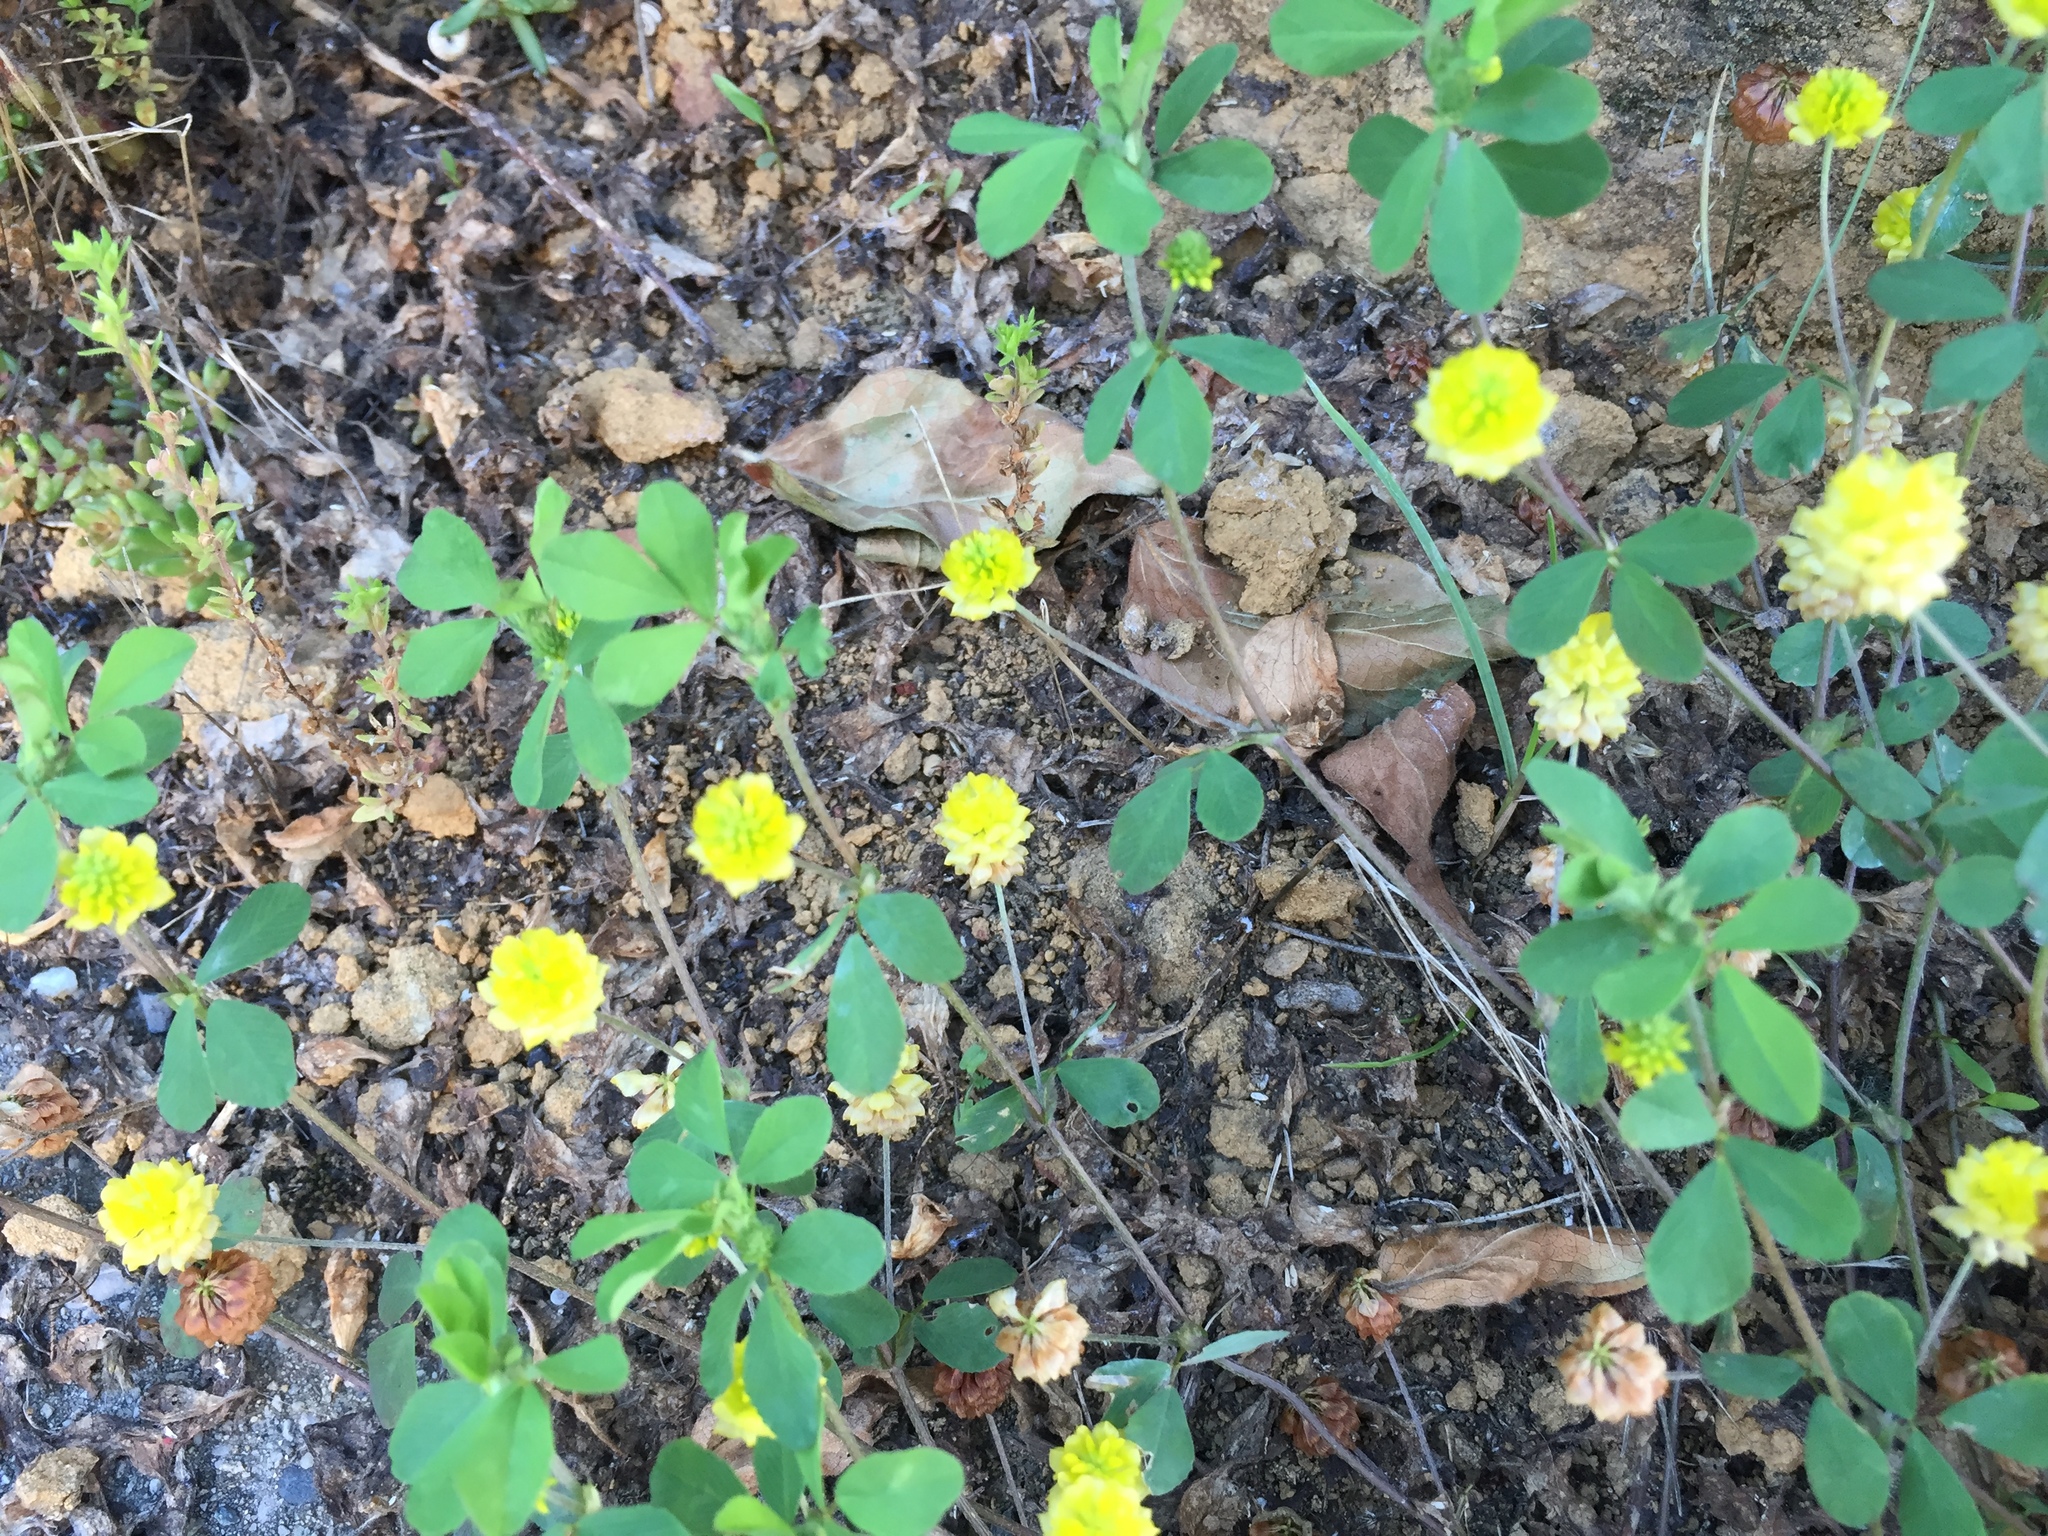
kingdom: Plantae
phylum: Tracheophyta
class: Magnoliopsida
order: Fabales
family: Fabaceae
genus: Trifolium
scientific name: Trifolium campestre
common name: Field clover
